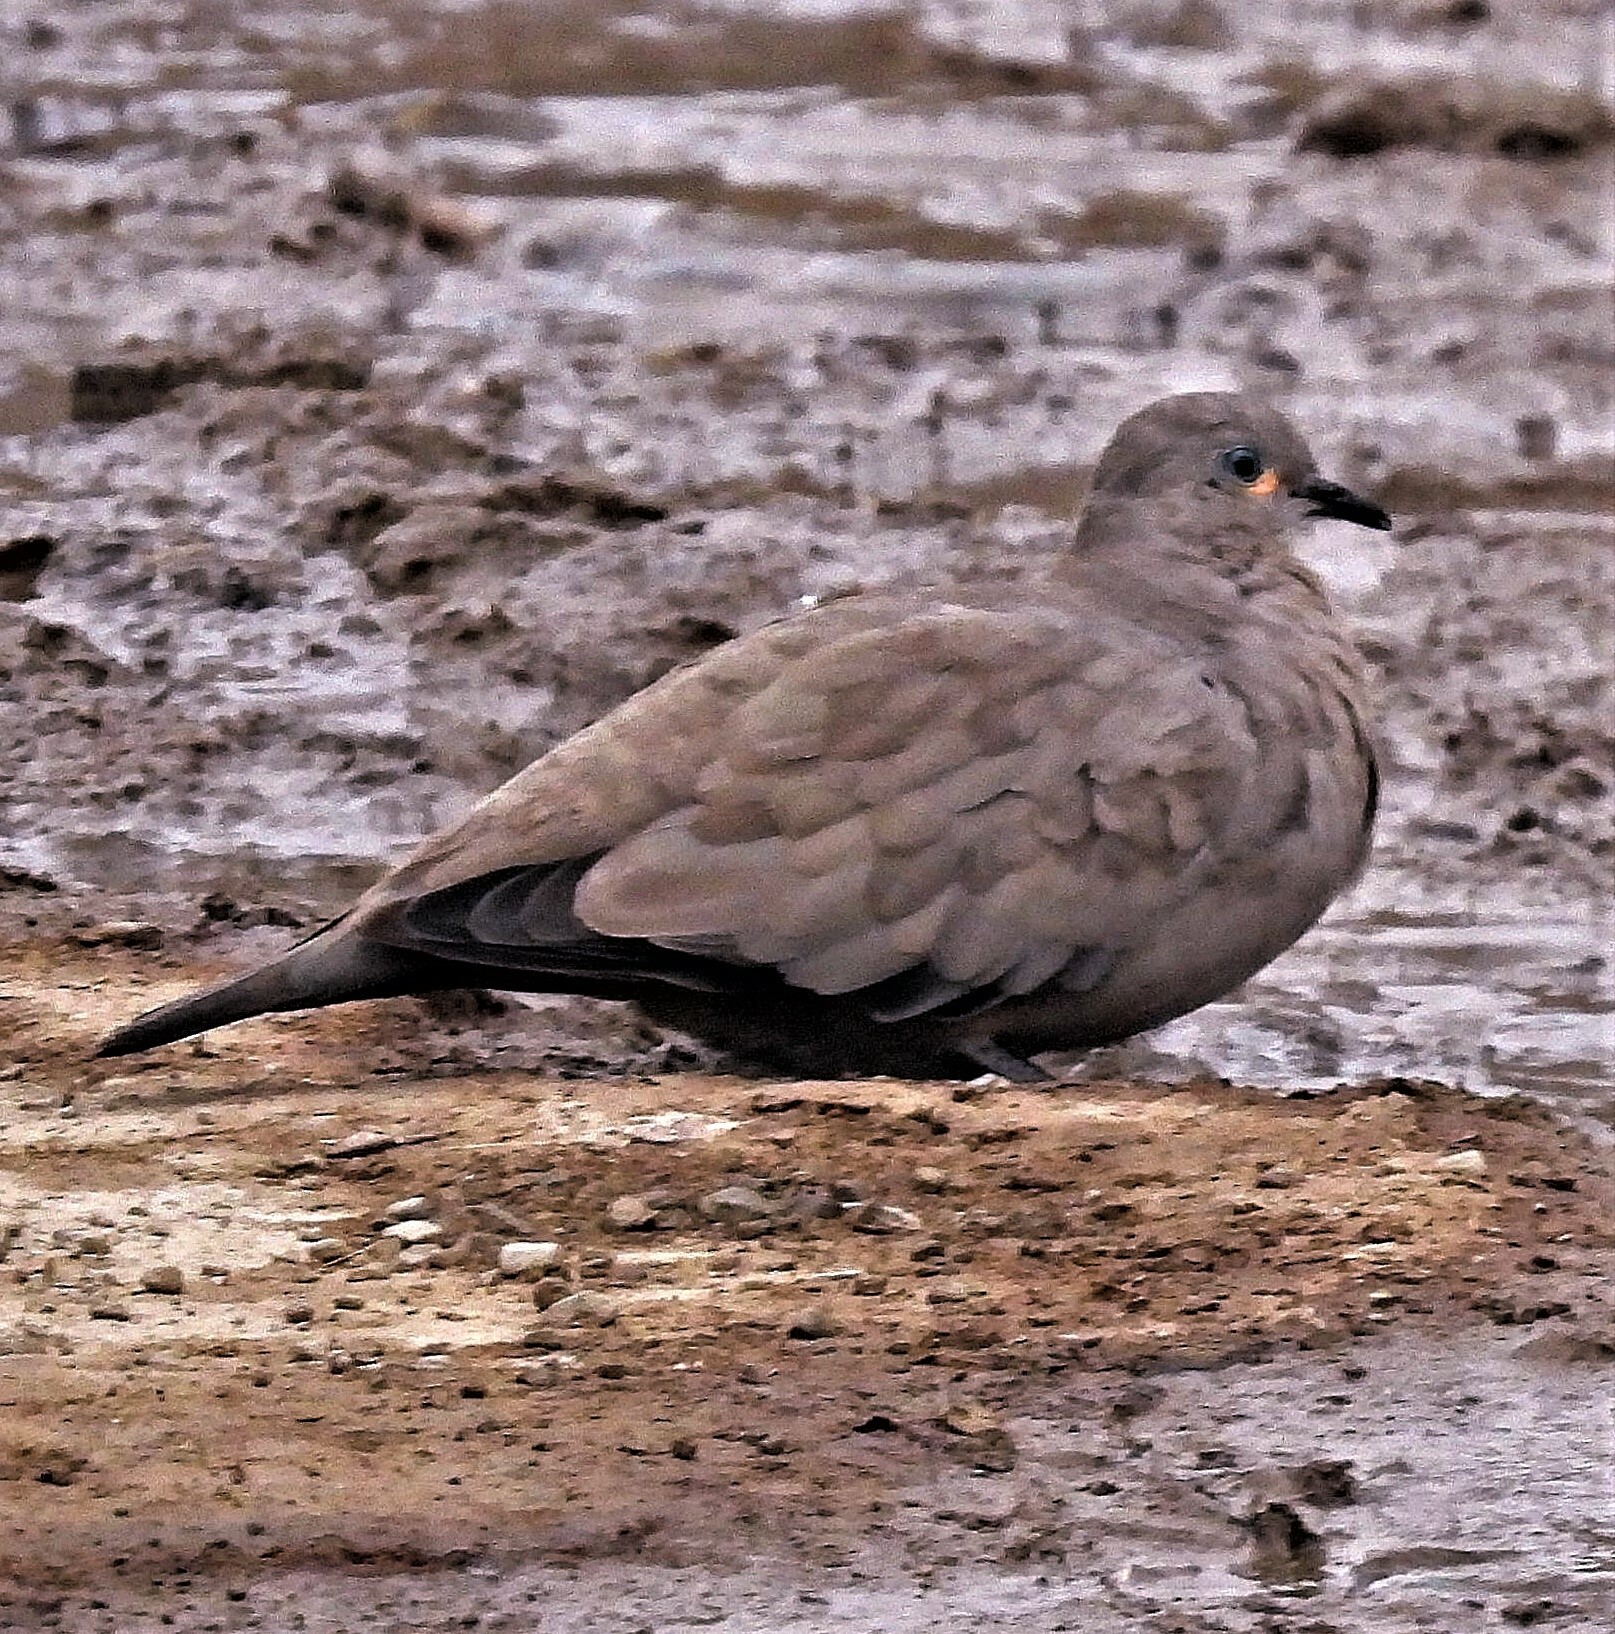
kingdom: Animalia
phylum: Chordata
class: Aves
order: Columbiformes
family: Columbidae
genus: Metriopelia
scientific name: Metriopelia melanoptera
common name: Black-winged ground dove
